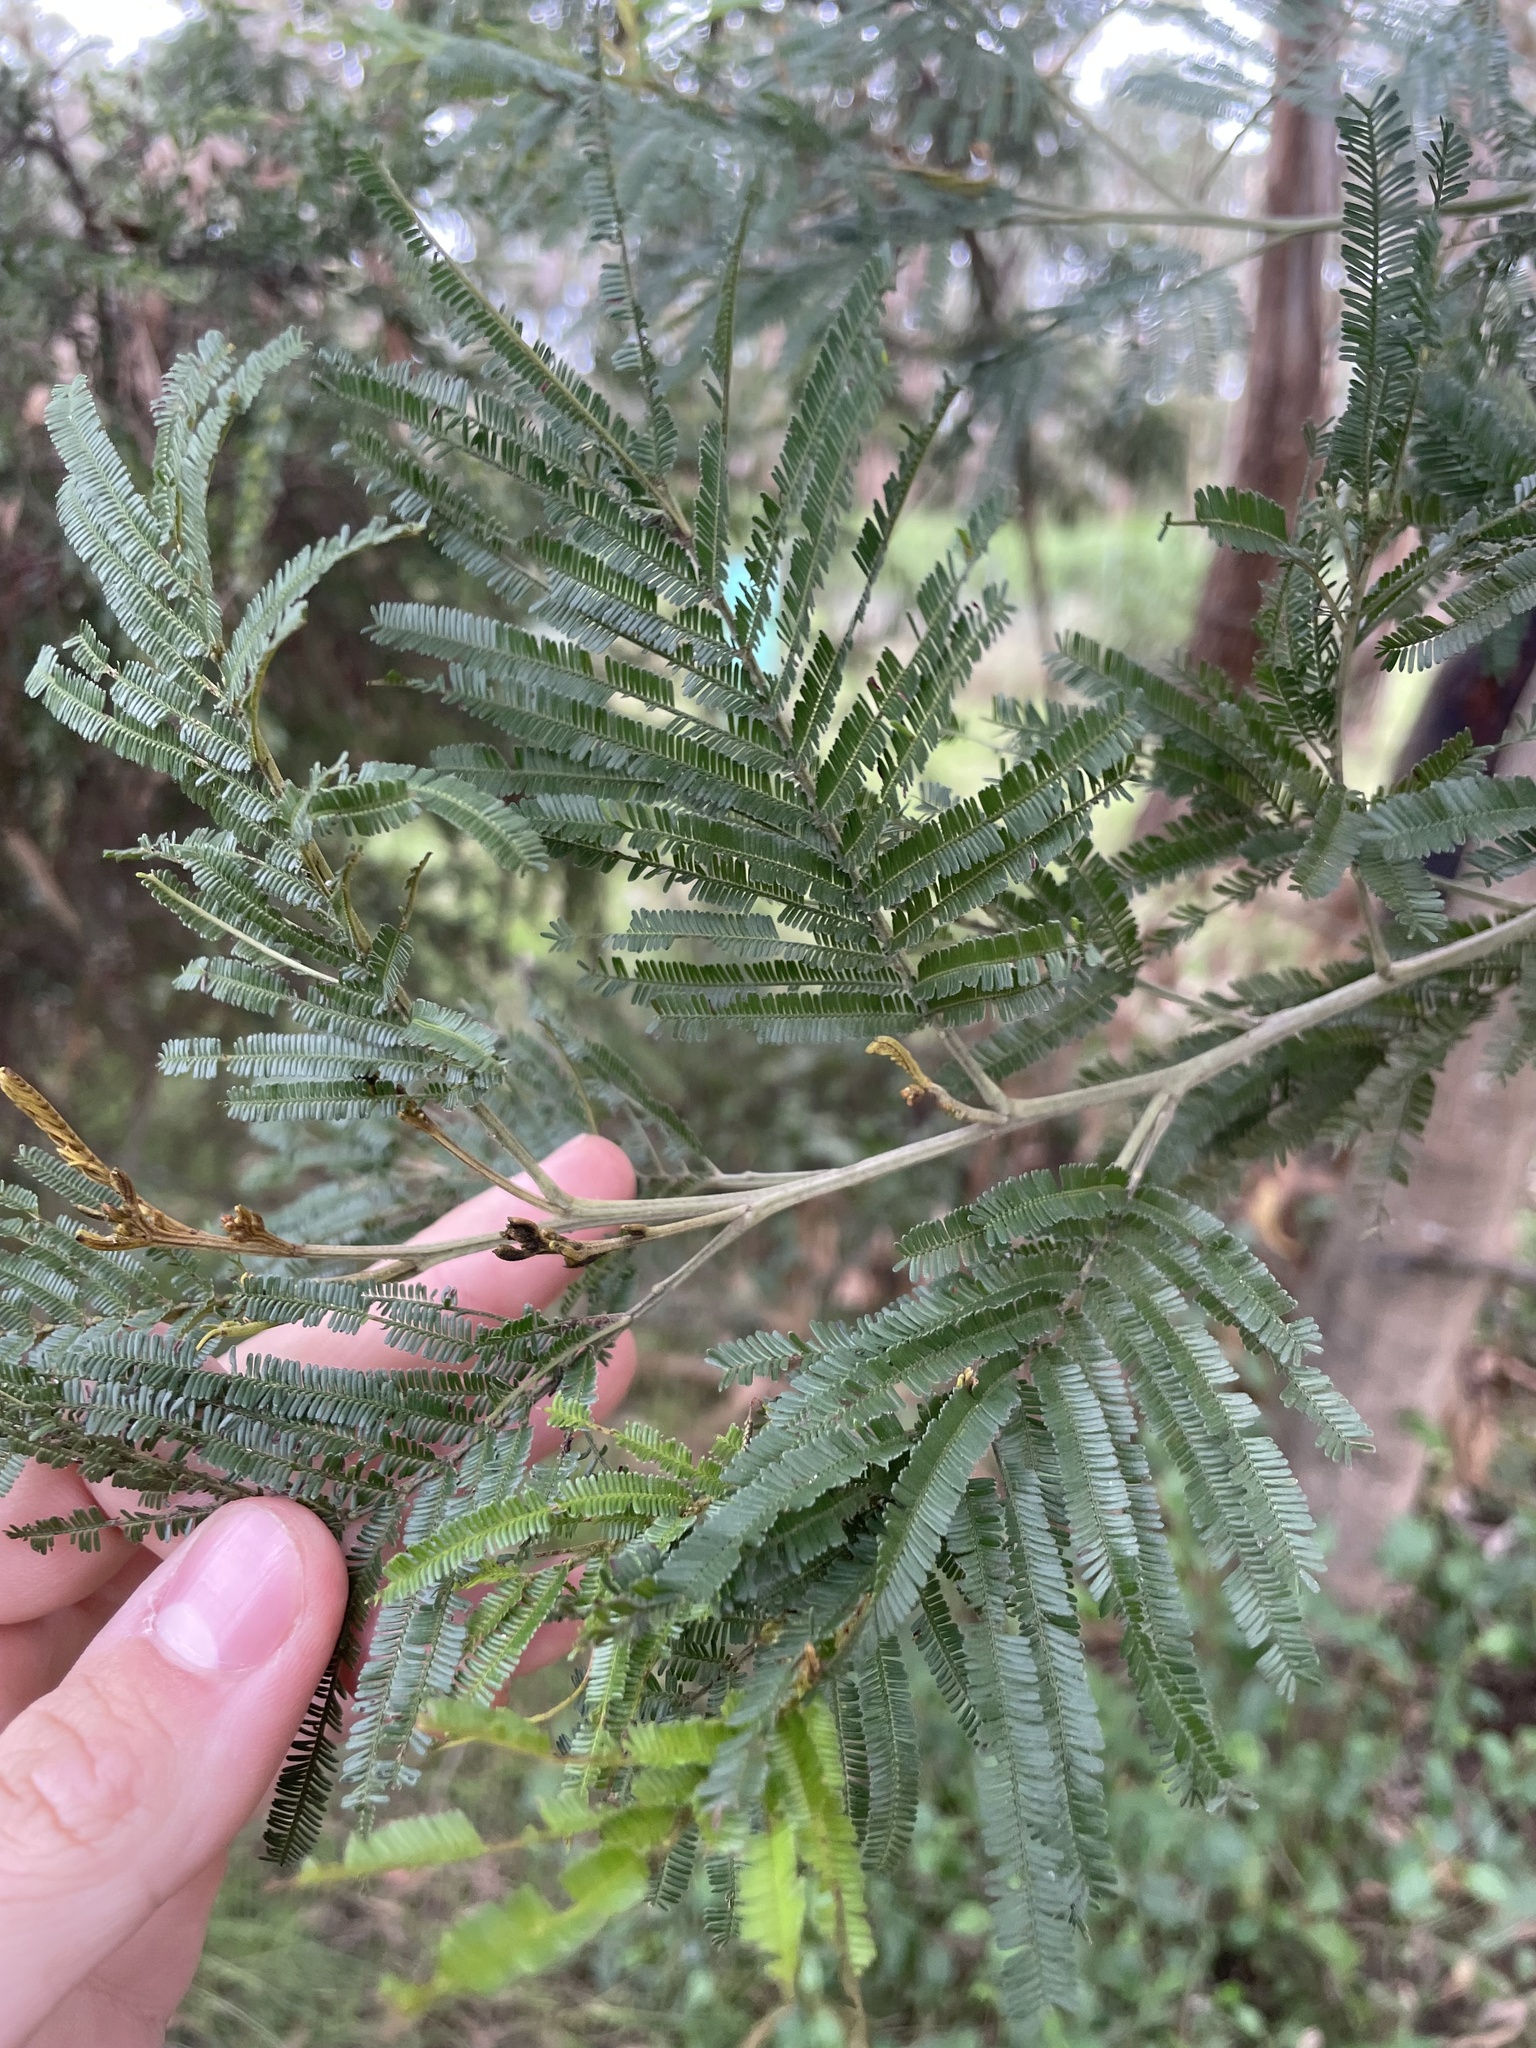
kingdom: Plantae
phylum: Tracheophyta
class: Magnoliopsida
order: Fabales
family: Fabaceae
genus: Acacia
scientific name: Acacia mearnsii
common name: Black wattle
